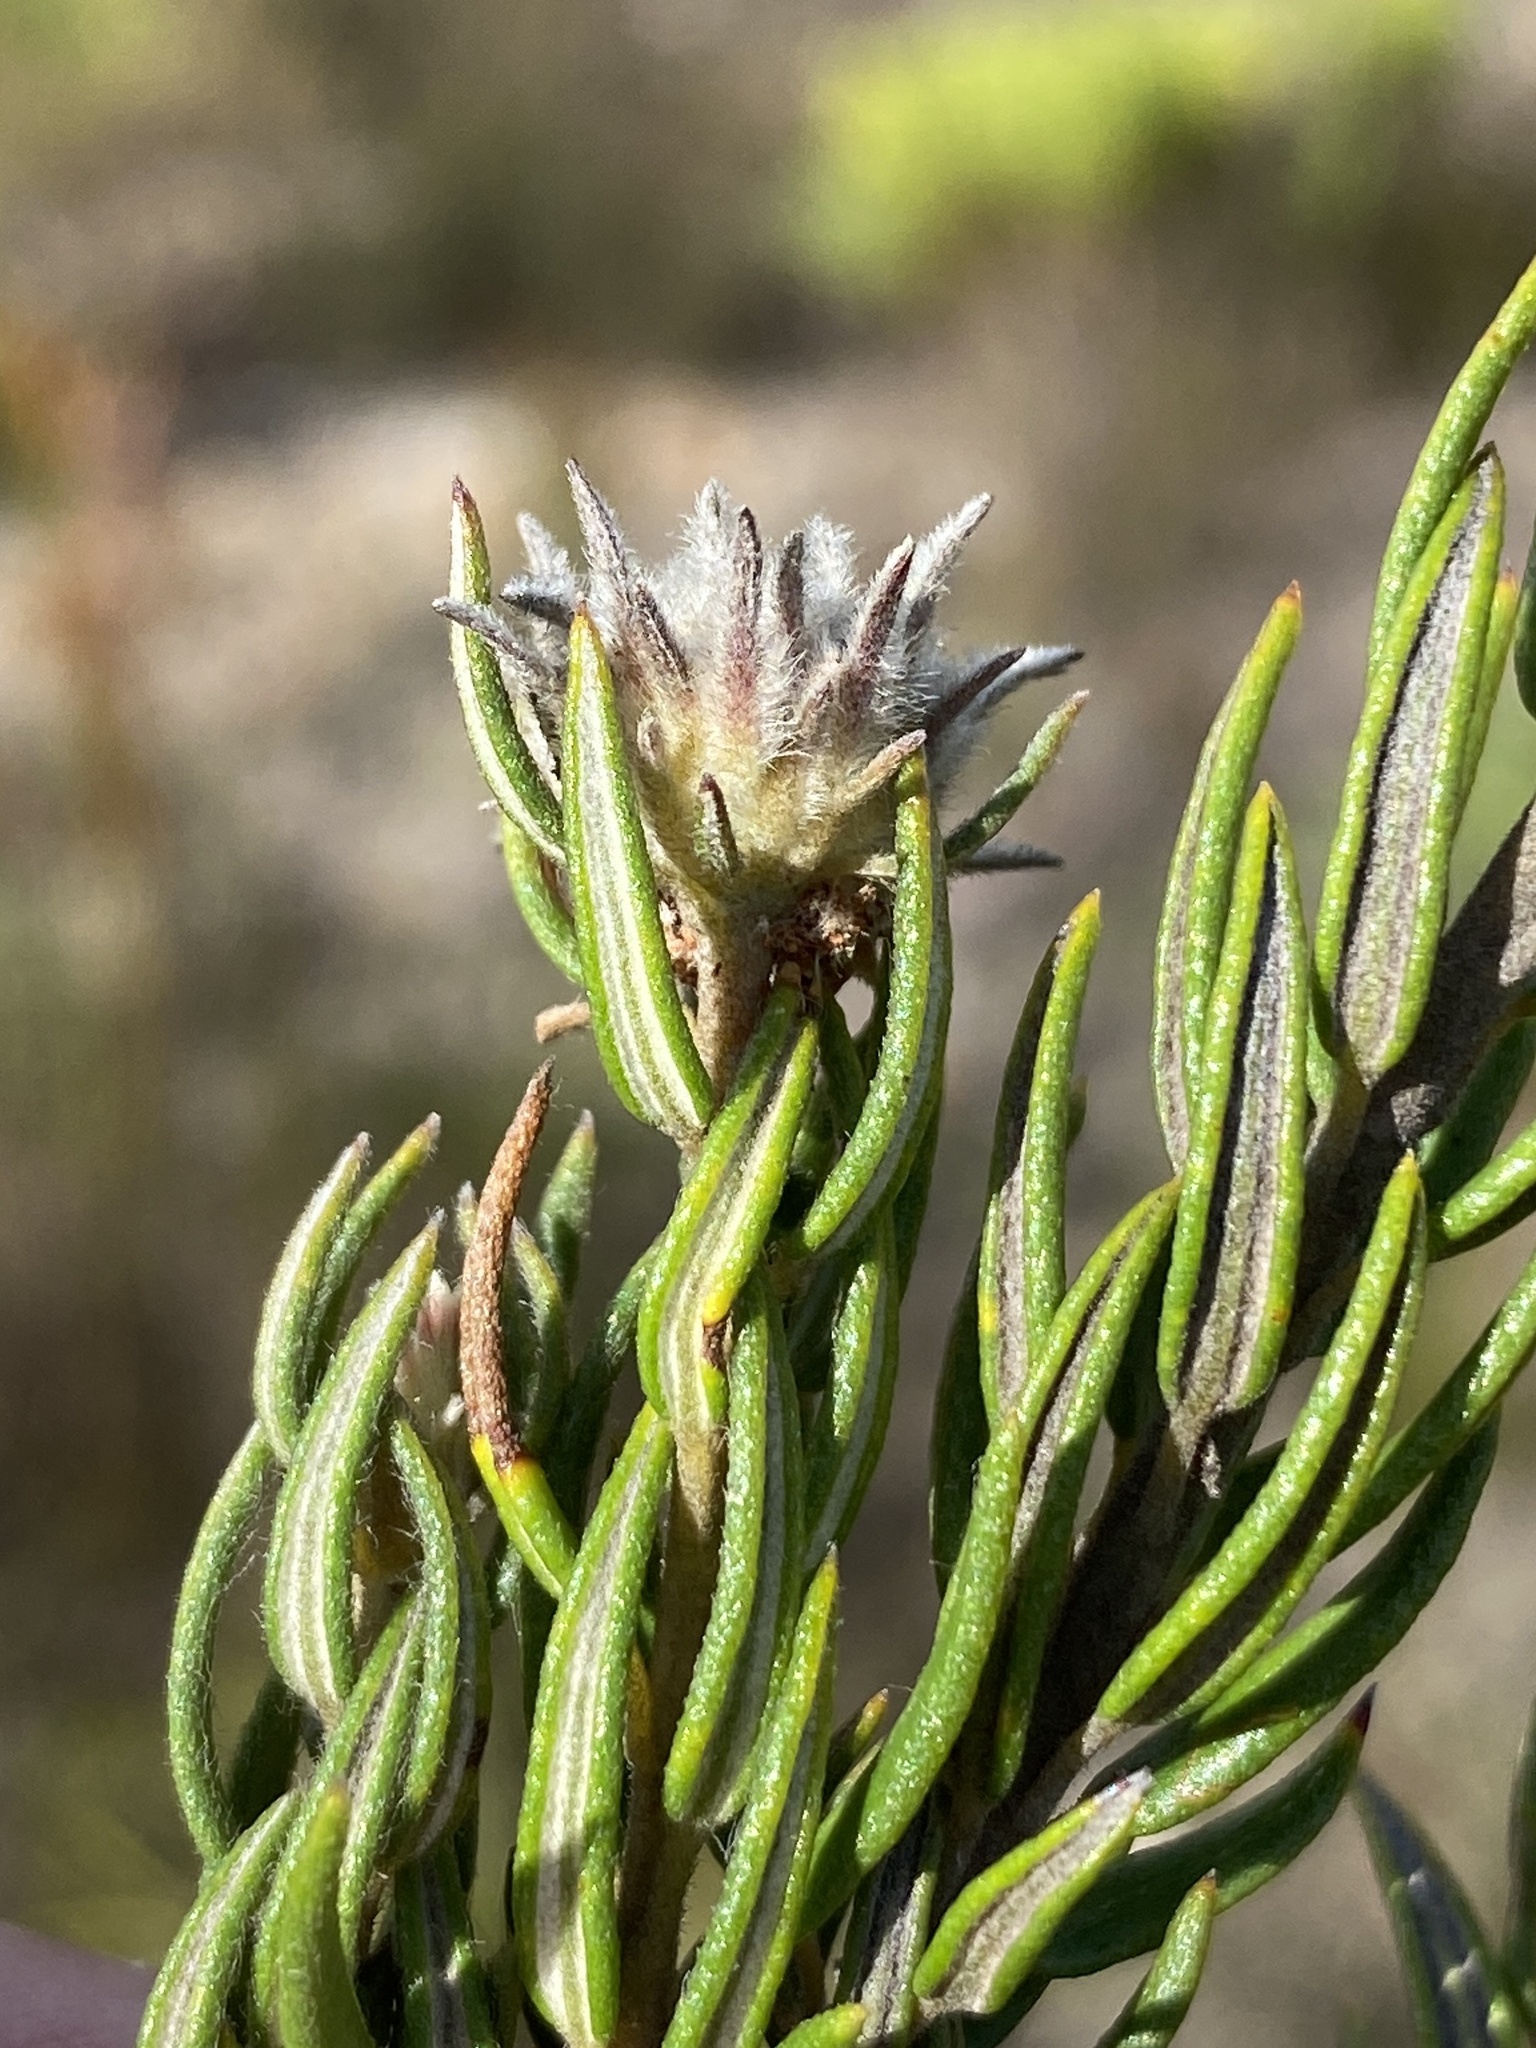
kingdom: Plantae
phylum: Tracheophyta
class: Magnoliopsida
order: Rosales
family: Rhamnaceae
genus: Phylica
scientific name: Phylica diosmoides
